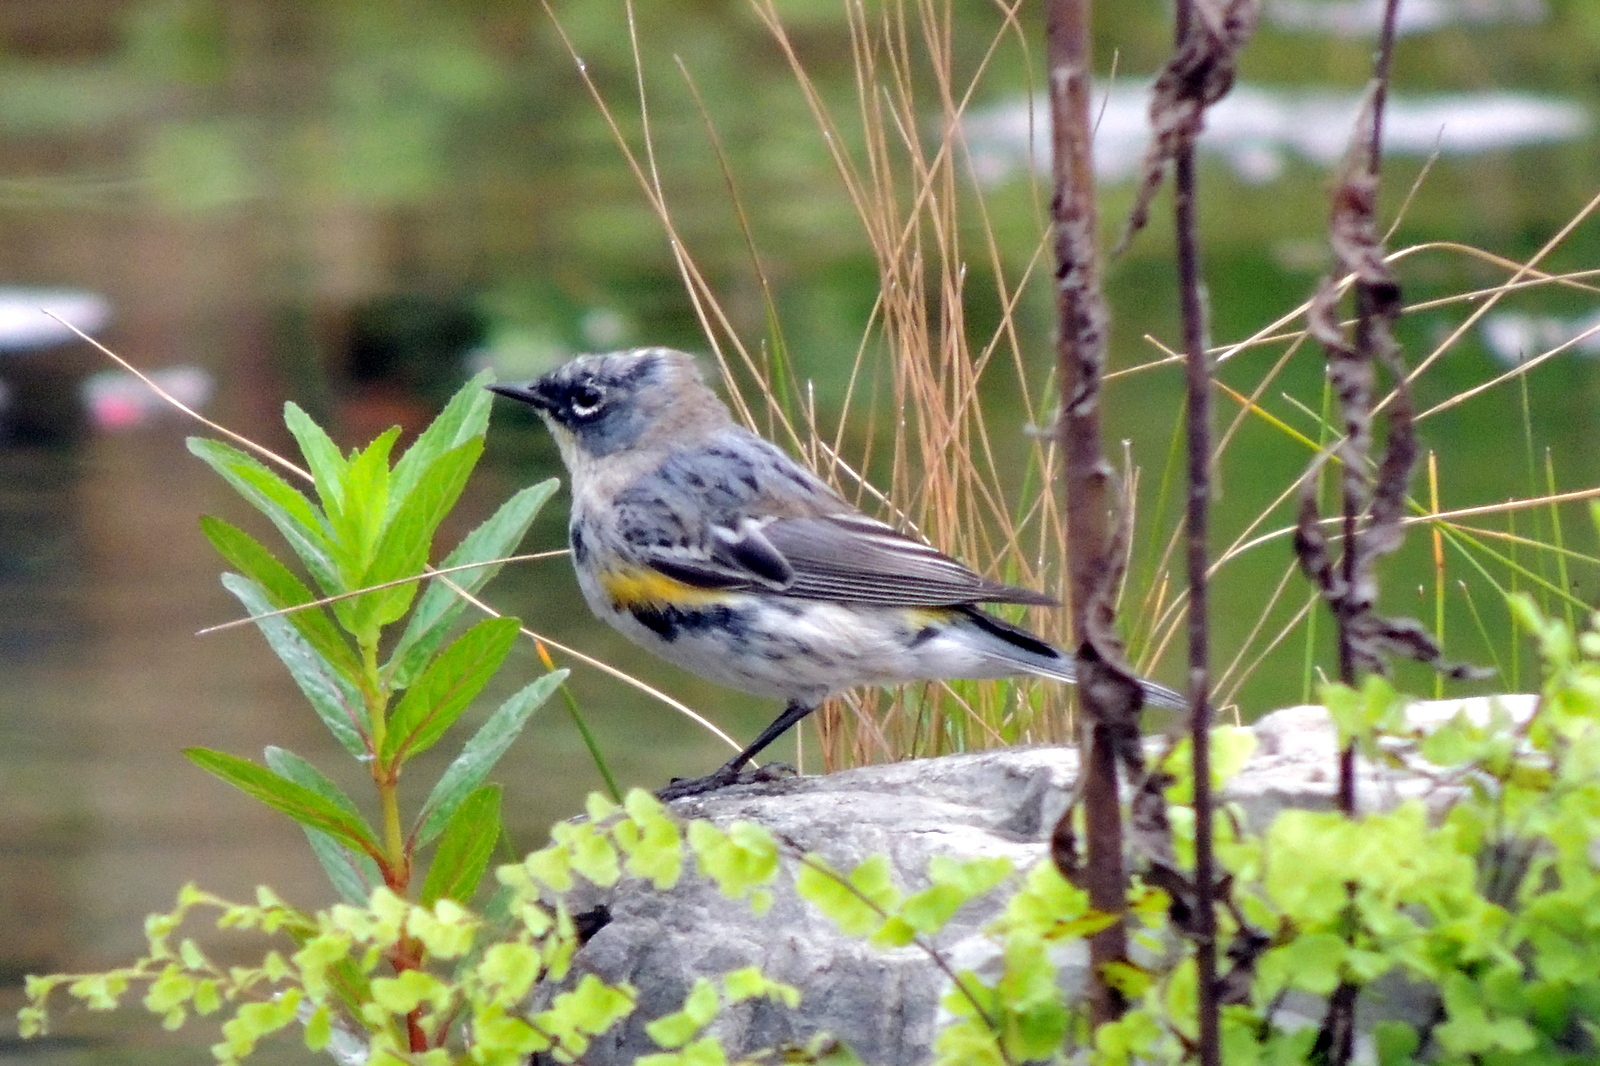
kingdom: Animalia
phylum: Chordata
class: Aves
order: Passeriformes
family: Parulidae
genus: Setophaga
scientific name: Setophaga coronata
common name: Myrtle warbler
